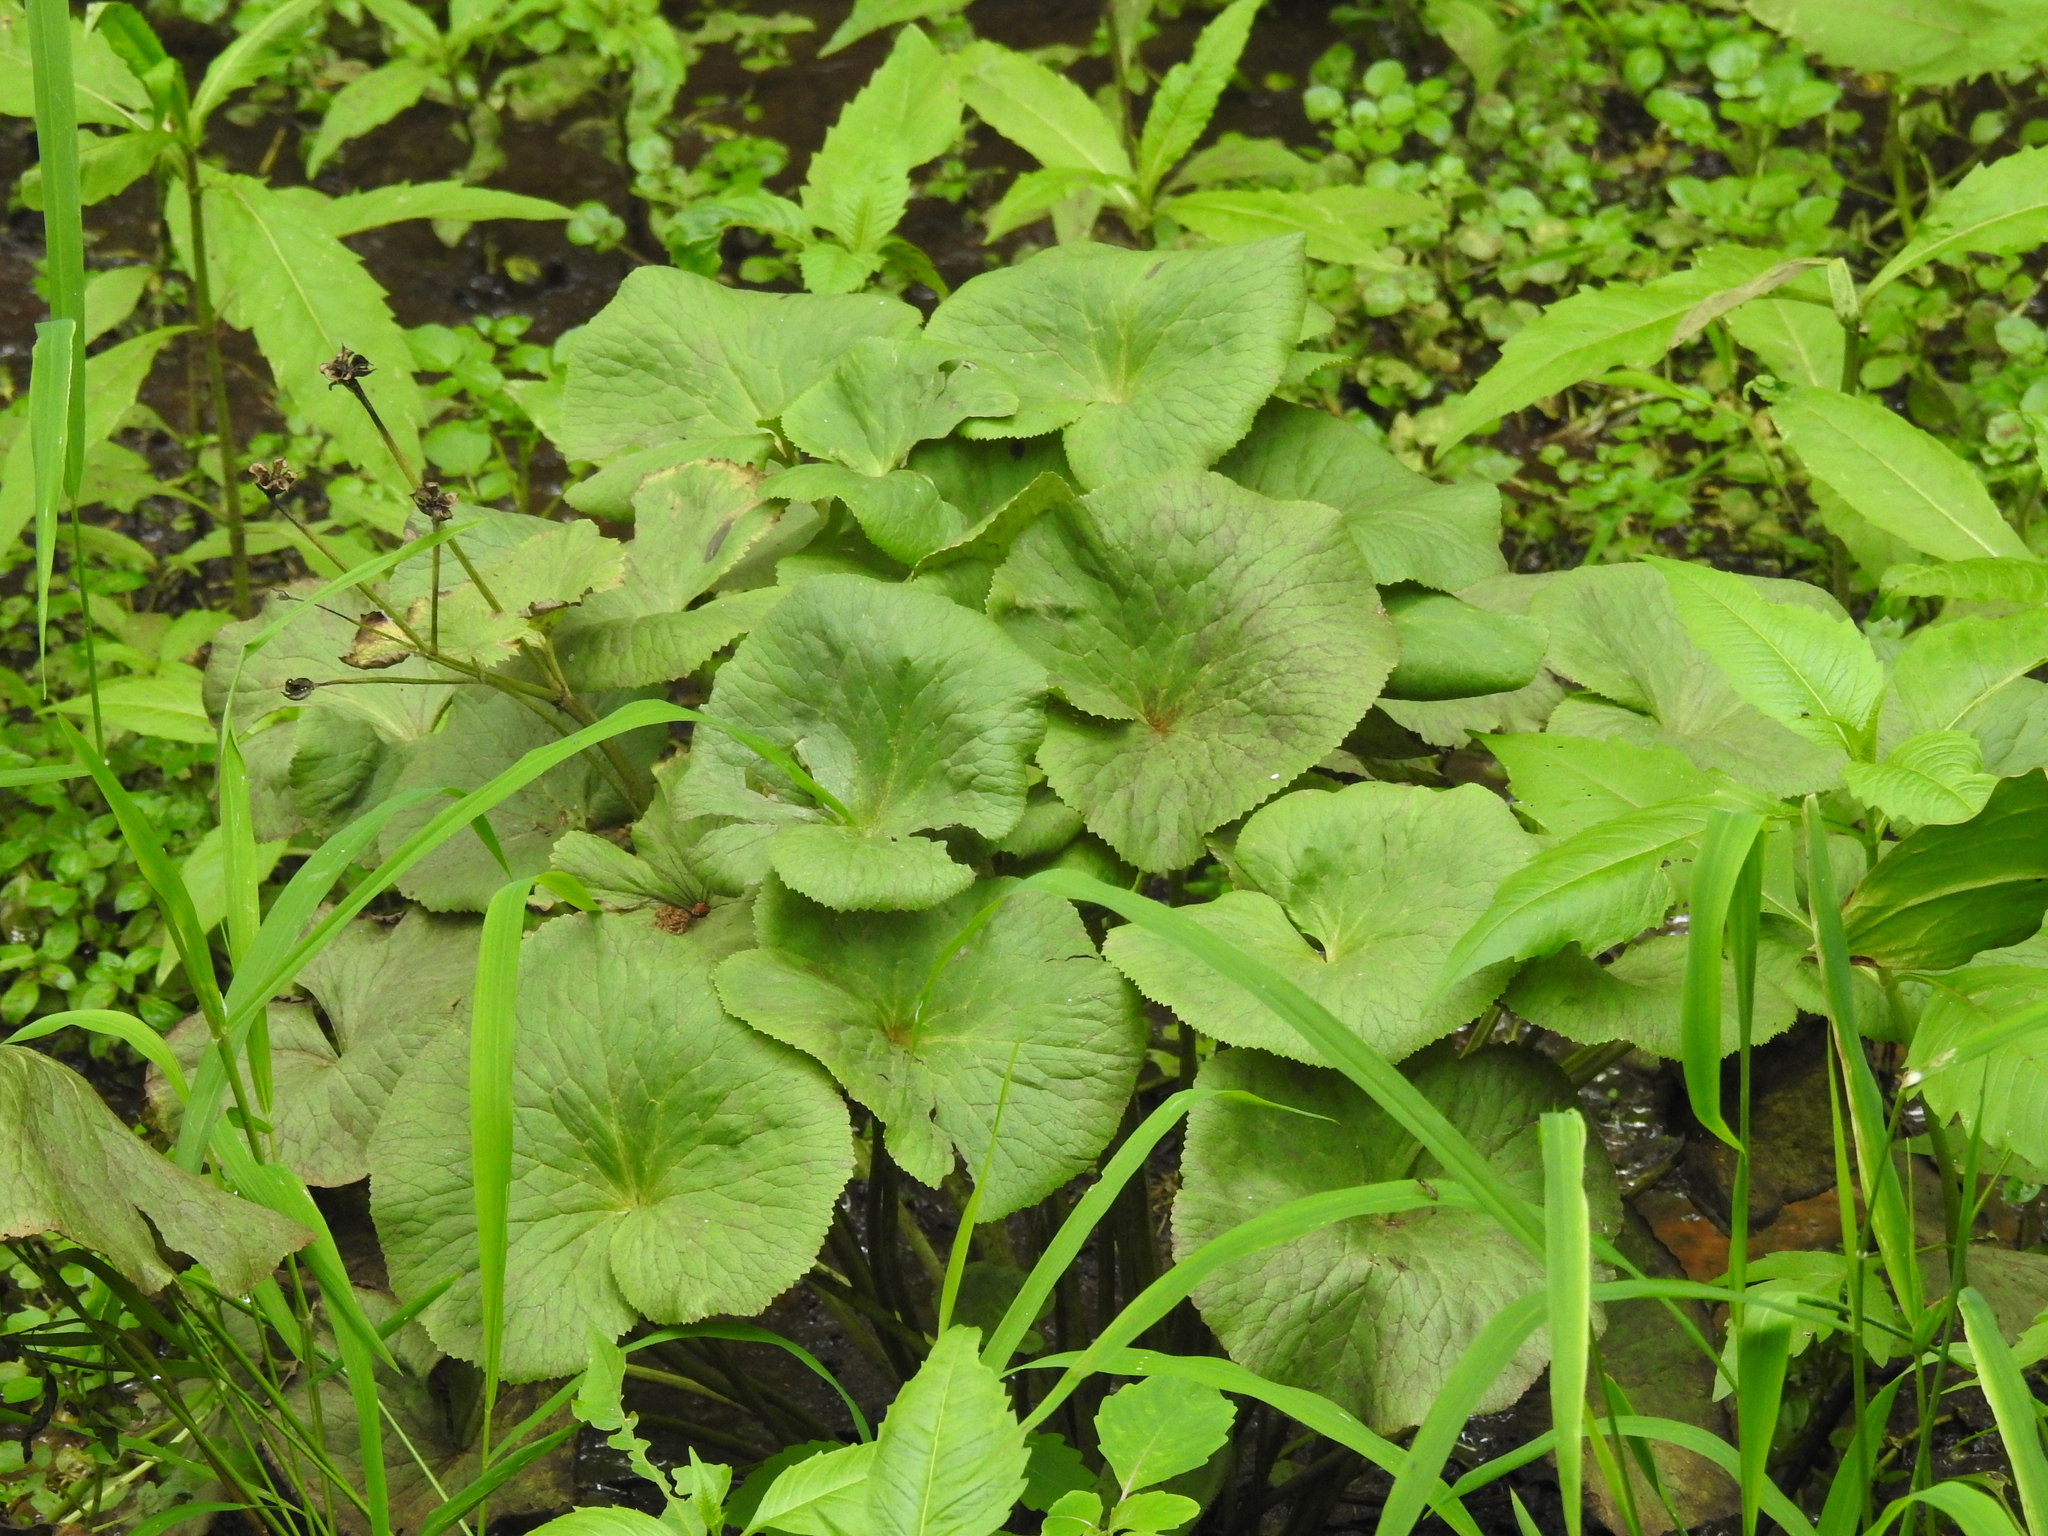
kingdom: Plantae
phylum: Tracheophyta
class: Magnoliopsida
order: Ranunculales
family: Ranunculaceae
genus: Caltha
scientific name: Caltha palustris
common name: Marsh marigold
